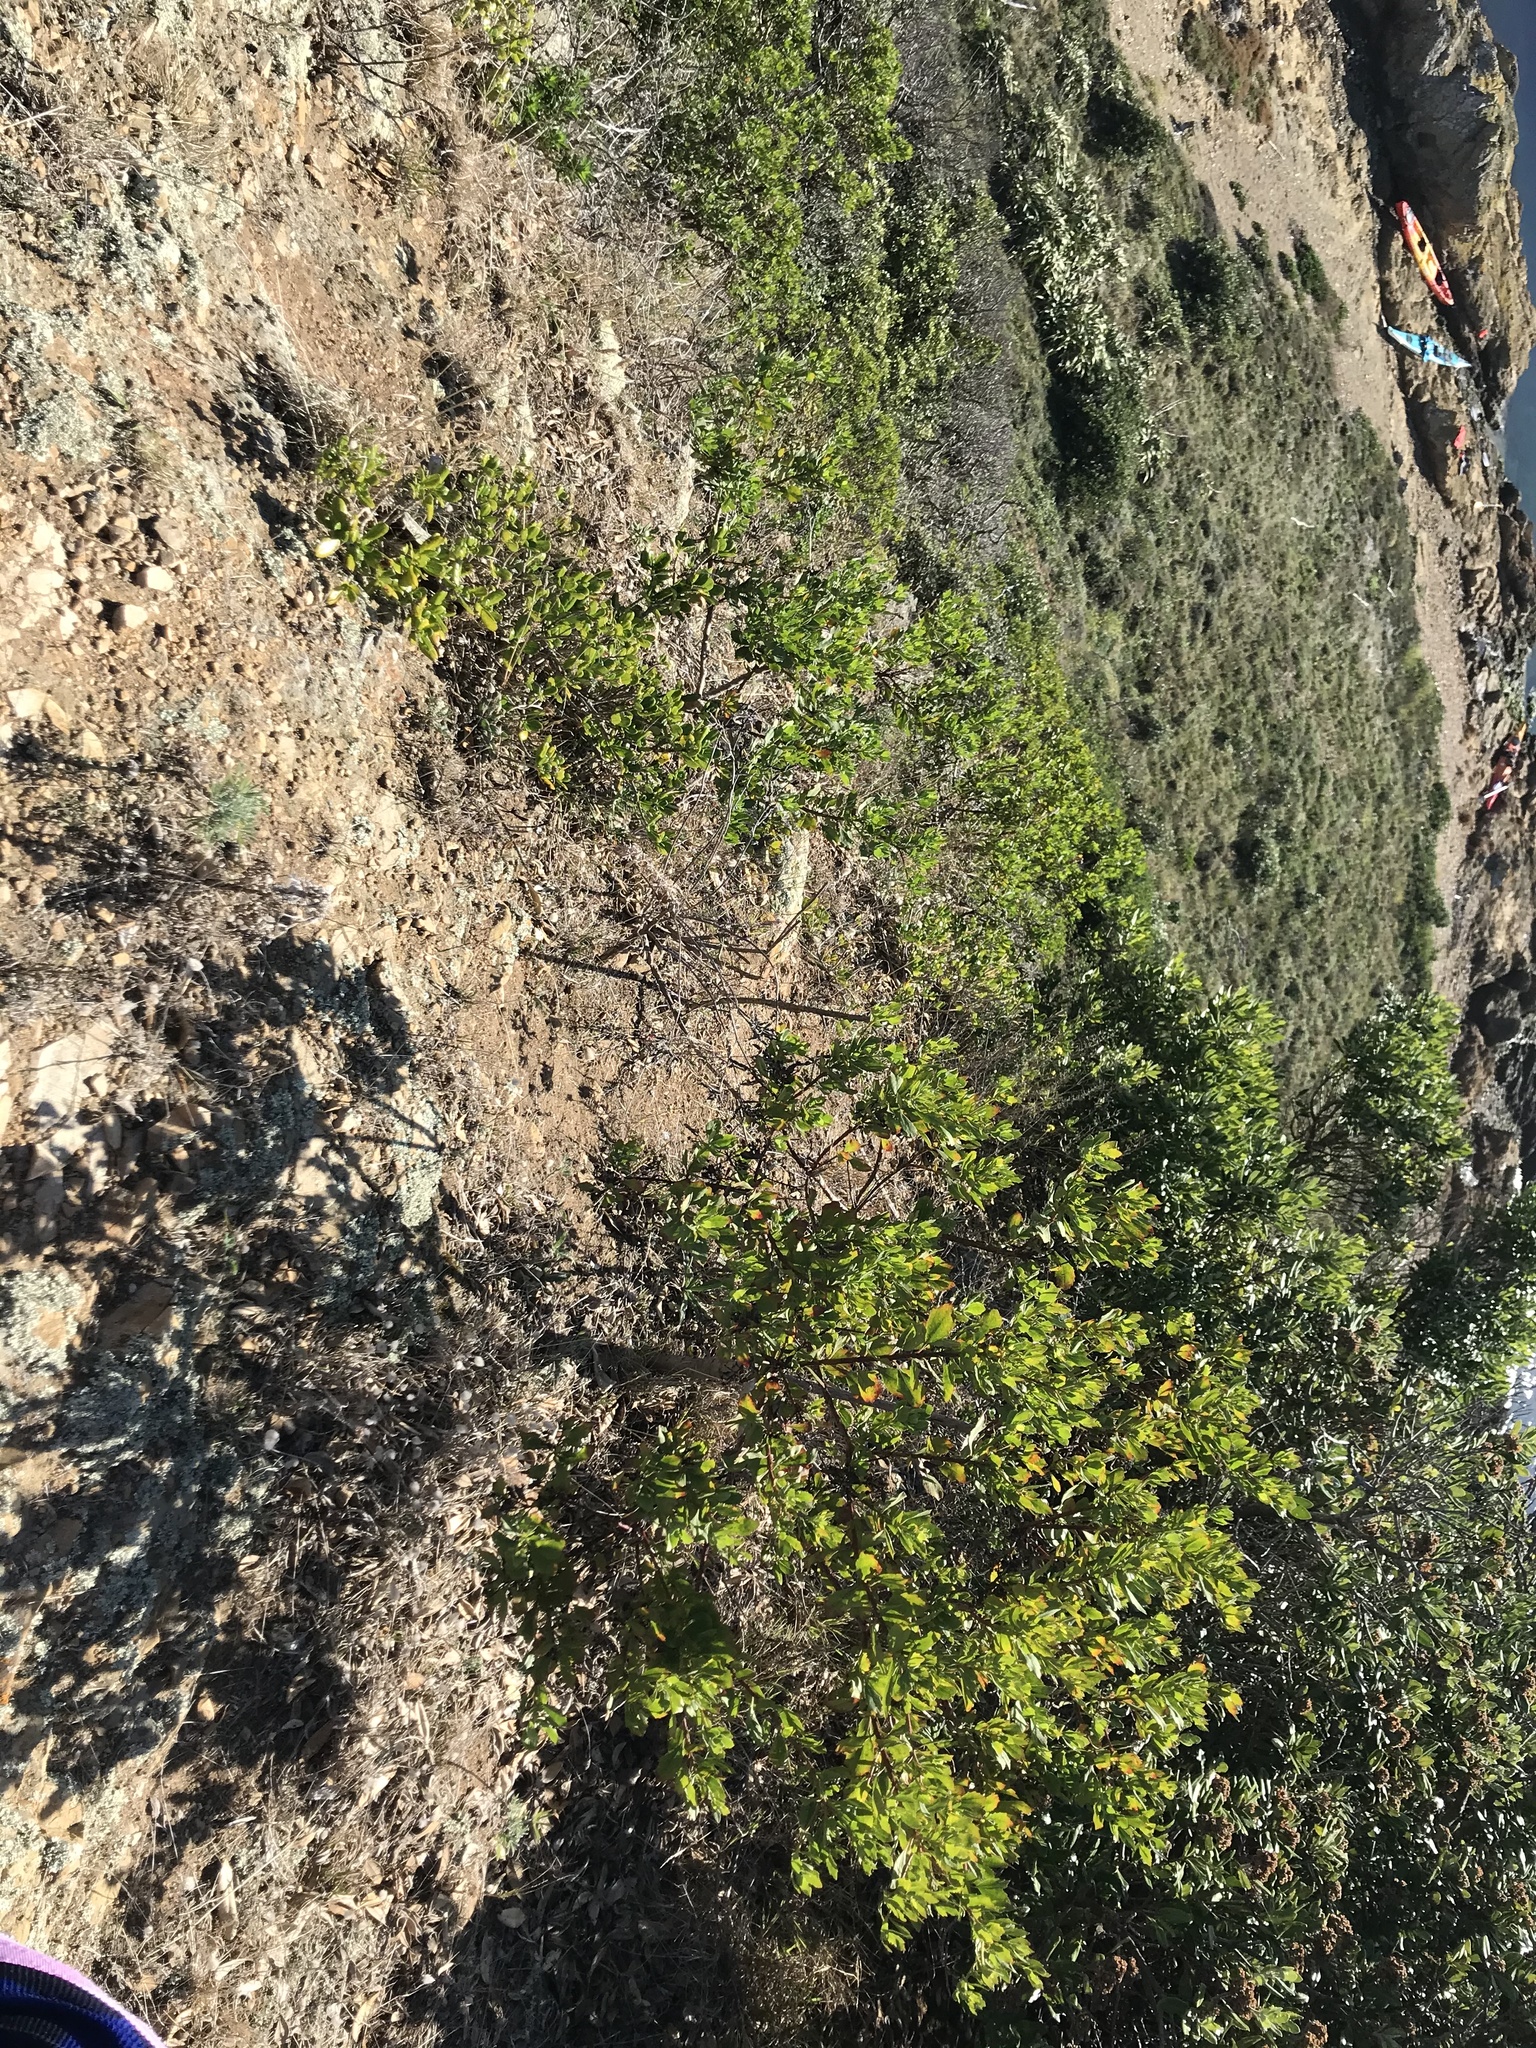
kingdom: Plantae
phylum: Tracheophyta
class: Magnoliopsida
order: Asterales
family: Asteraceae
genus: Osteospermum
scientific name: Osteospermum moniliferum
